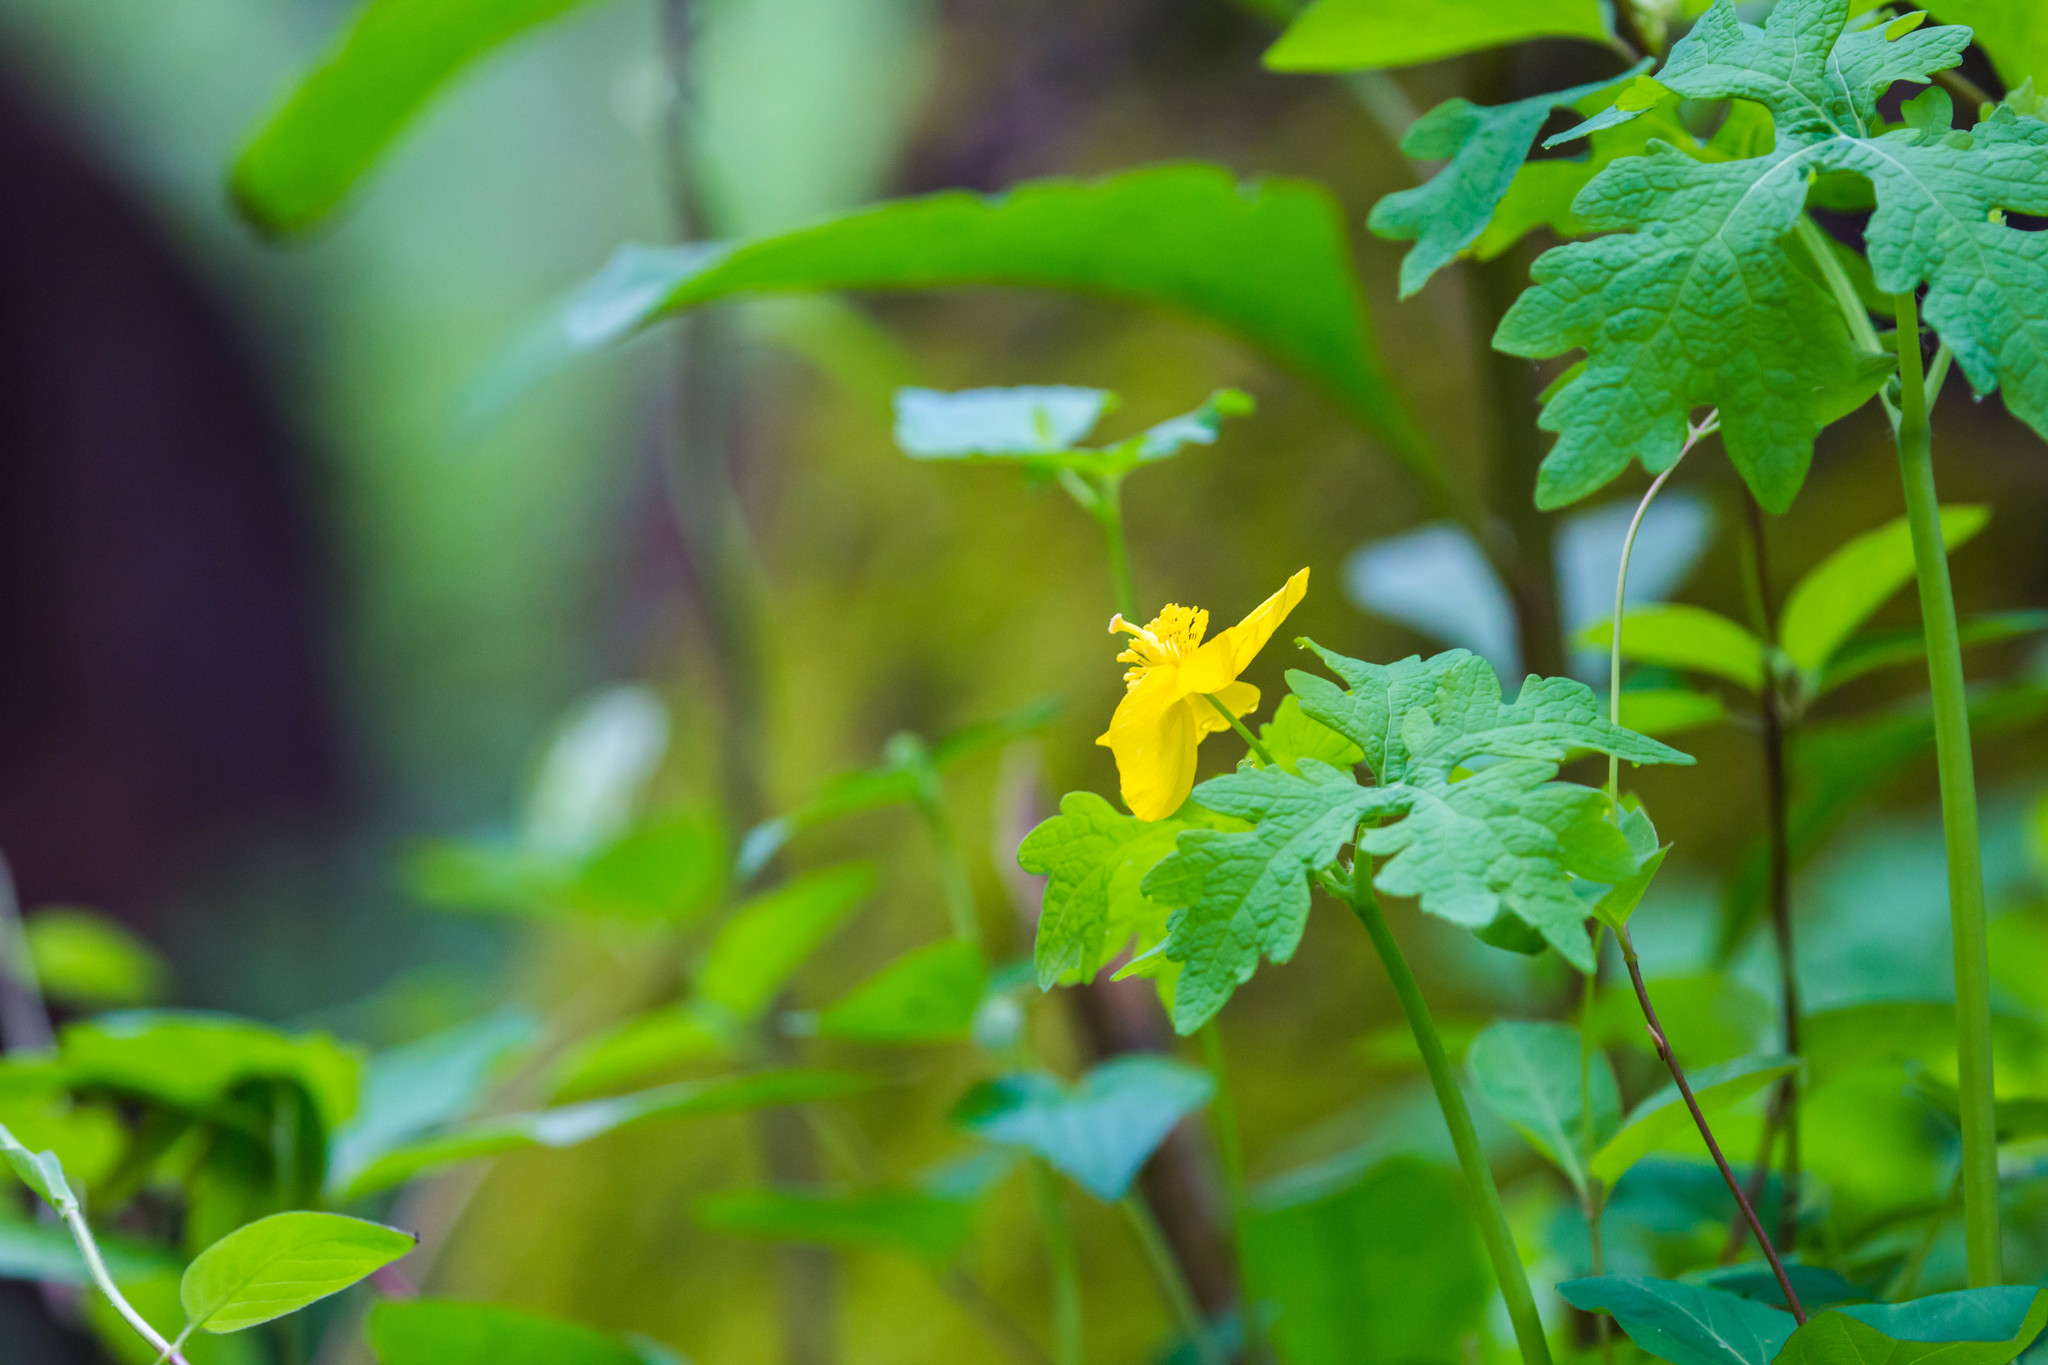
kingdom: Plantae
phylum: Tracheophyta
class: Magnoliopsida
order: Ranunculales
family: Papaveraceae
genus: Stylophorum
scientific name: Stylophorum diphyllum
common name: Celandine poppy
